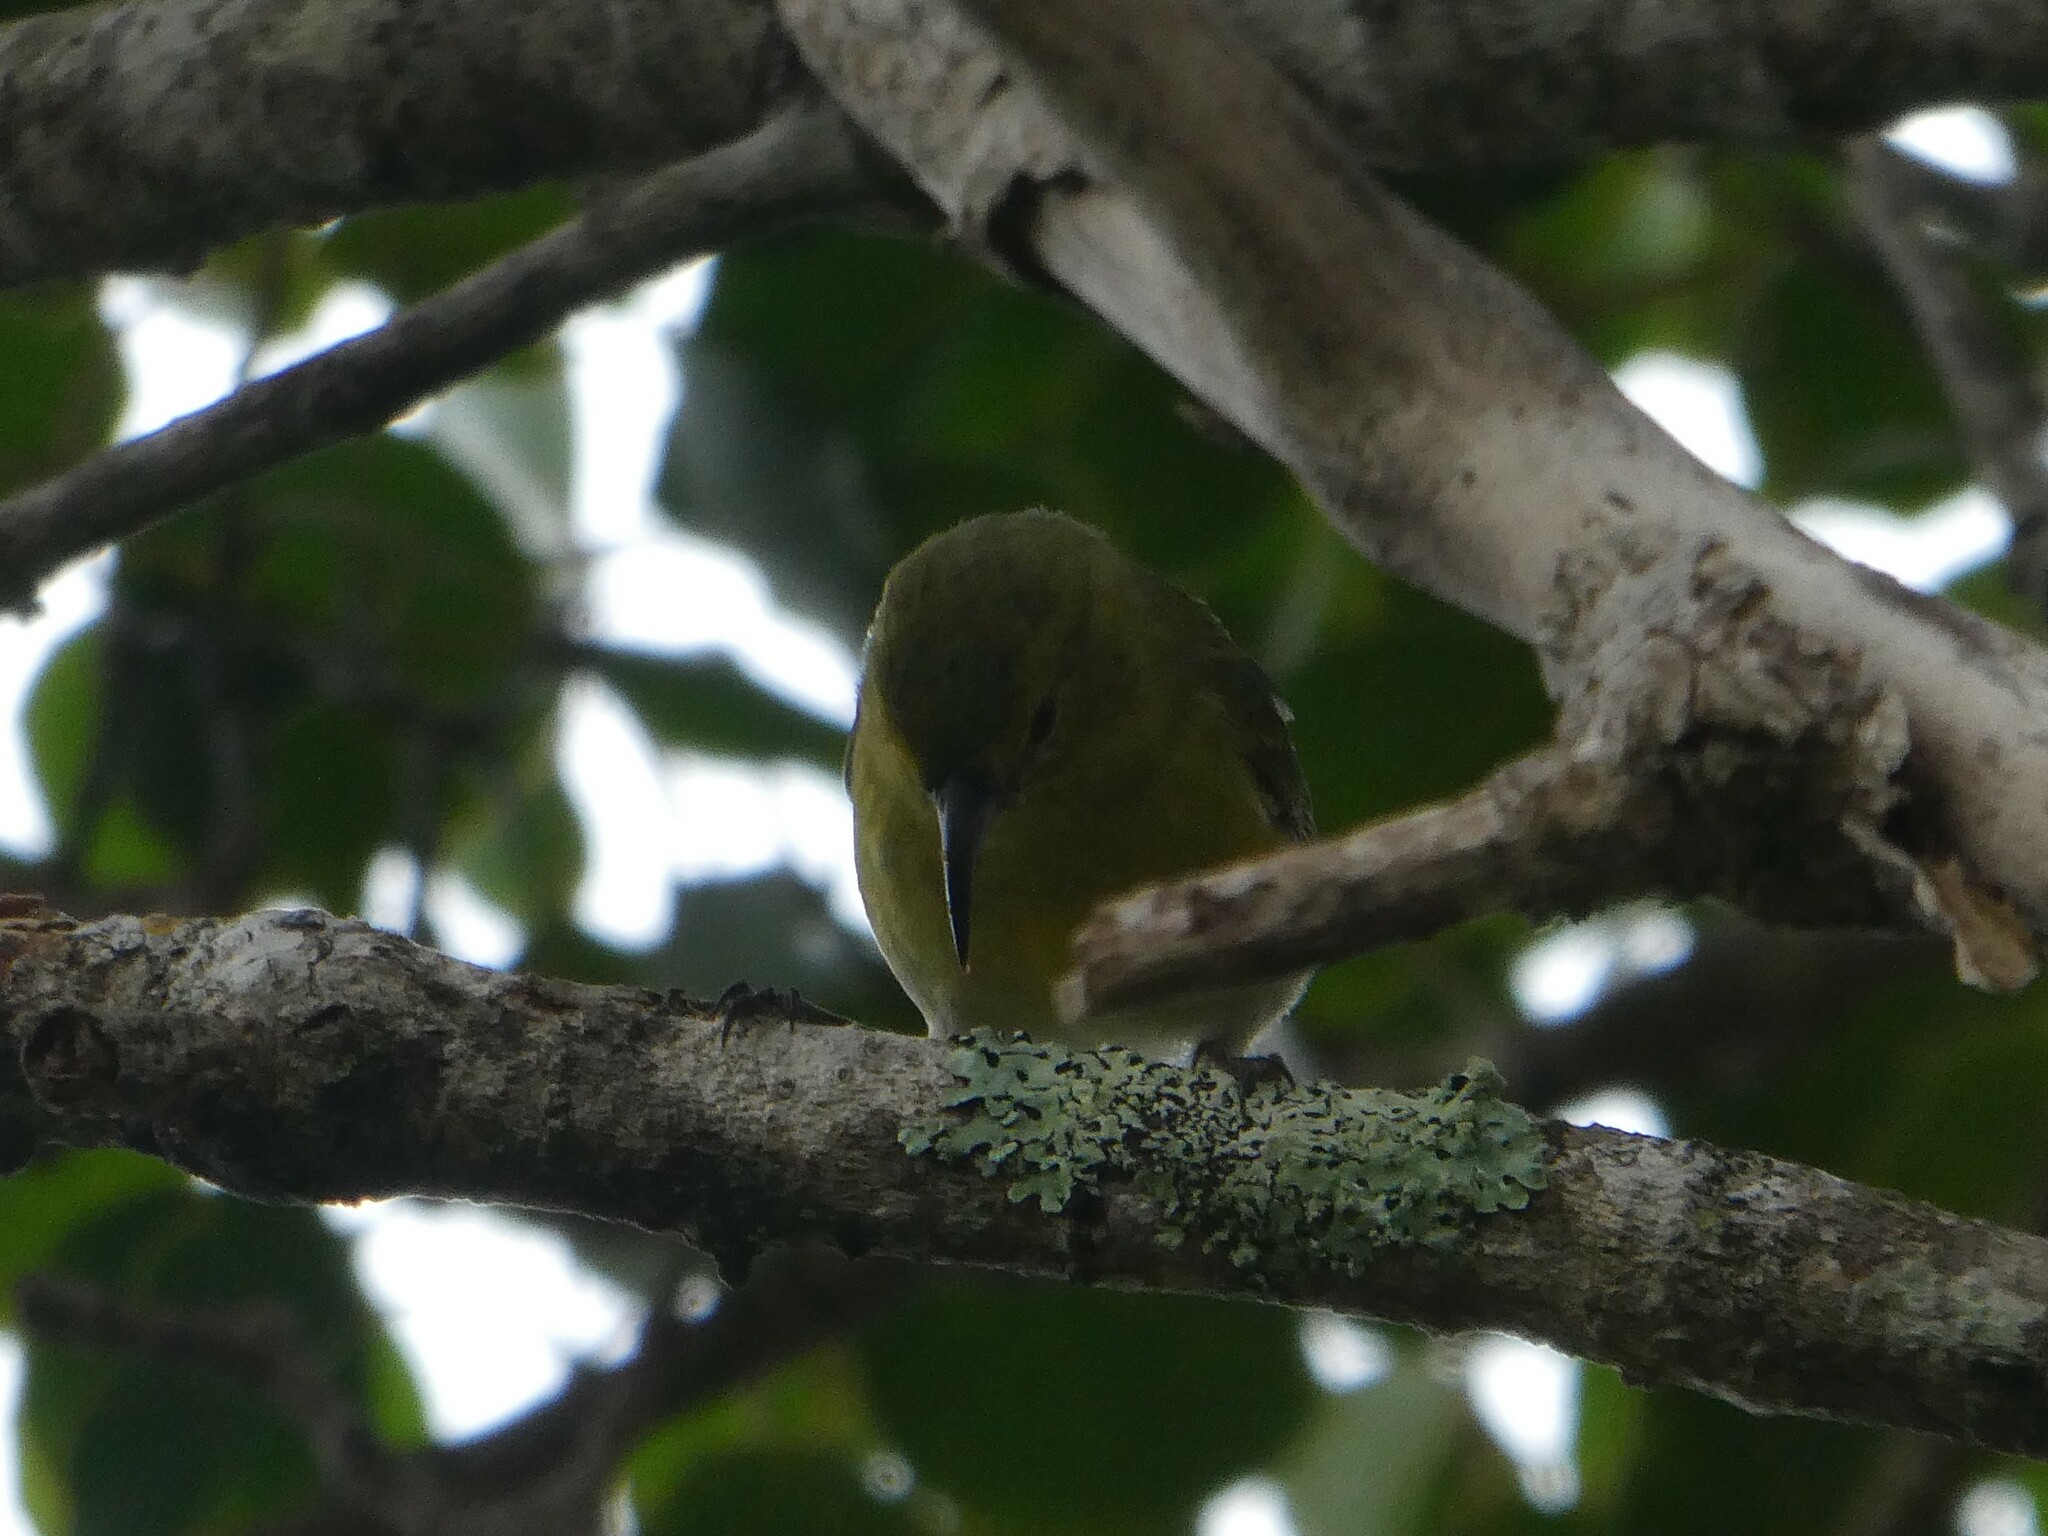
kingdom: Animalia
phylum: Chordata
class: Aves
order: Passeriformes
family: Fringillidae
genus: Chlorodrepanis
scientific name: Chlorodrepanis stejnegeri
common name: Kauai amakihi
